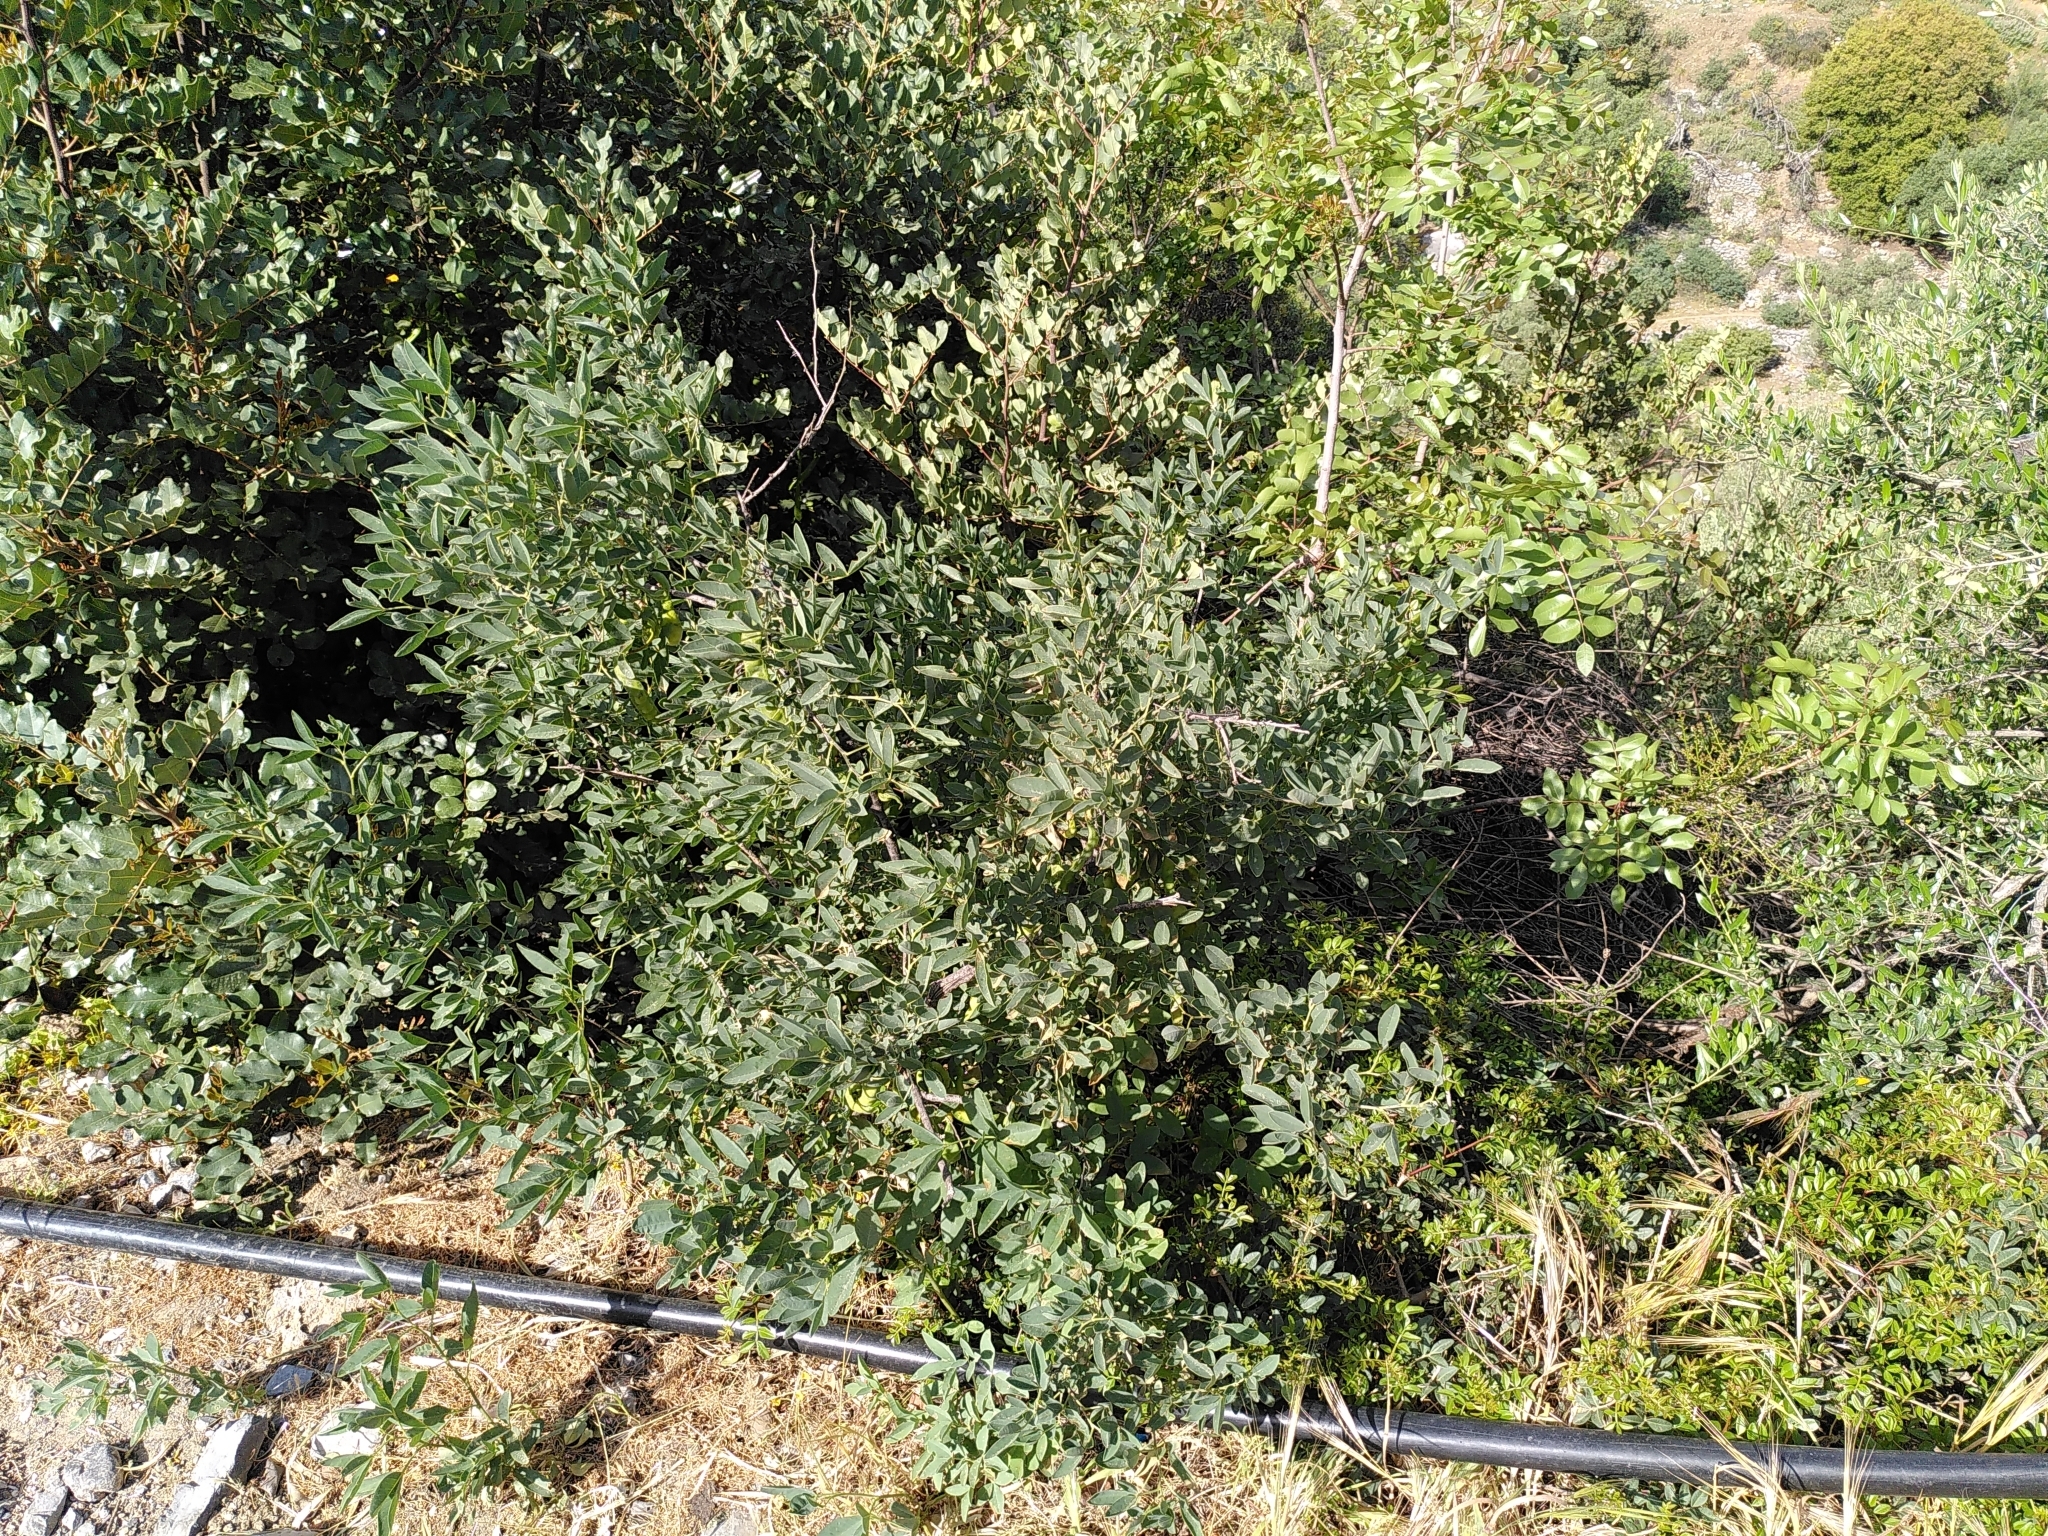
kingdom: Plantae
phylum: Tracheophyta
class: Magnoliopsida
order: Fabales
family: Fabaceae
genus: Anagyris
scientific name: Anagyris foetida
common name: Stinking bean trefoil
